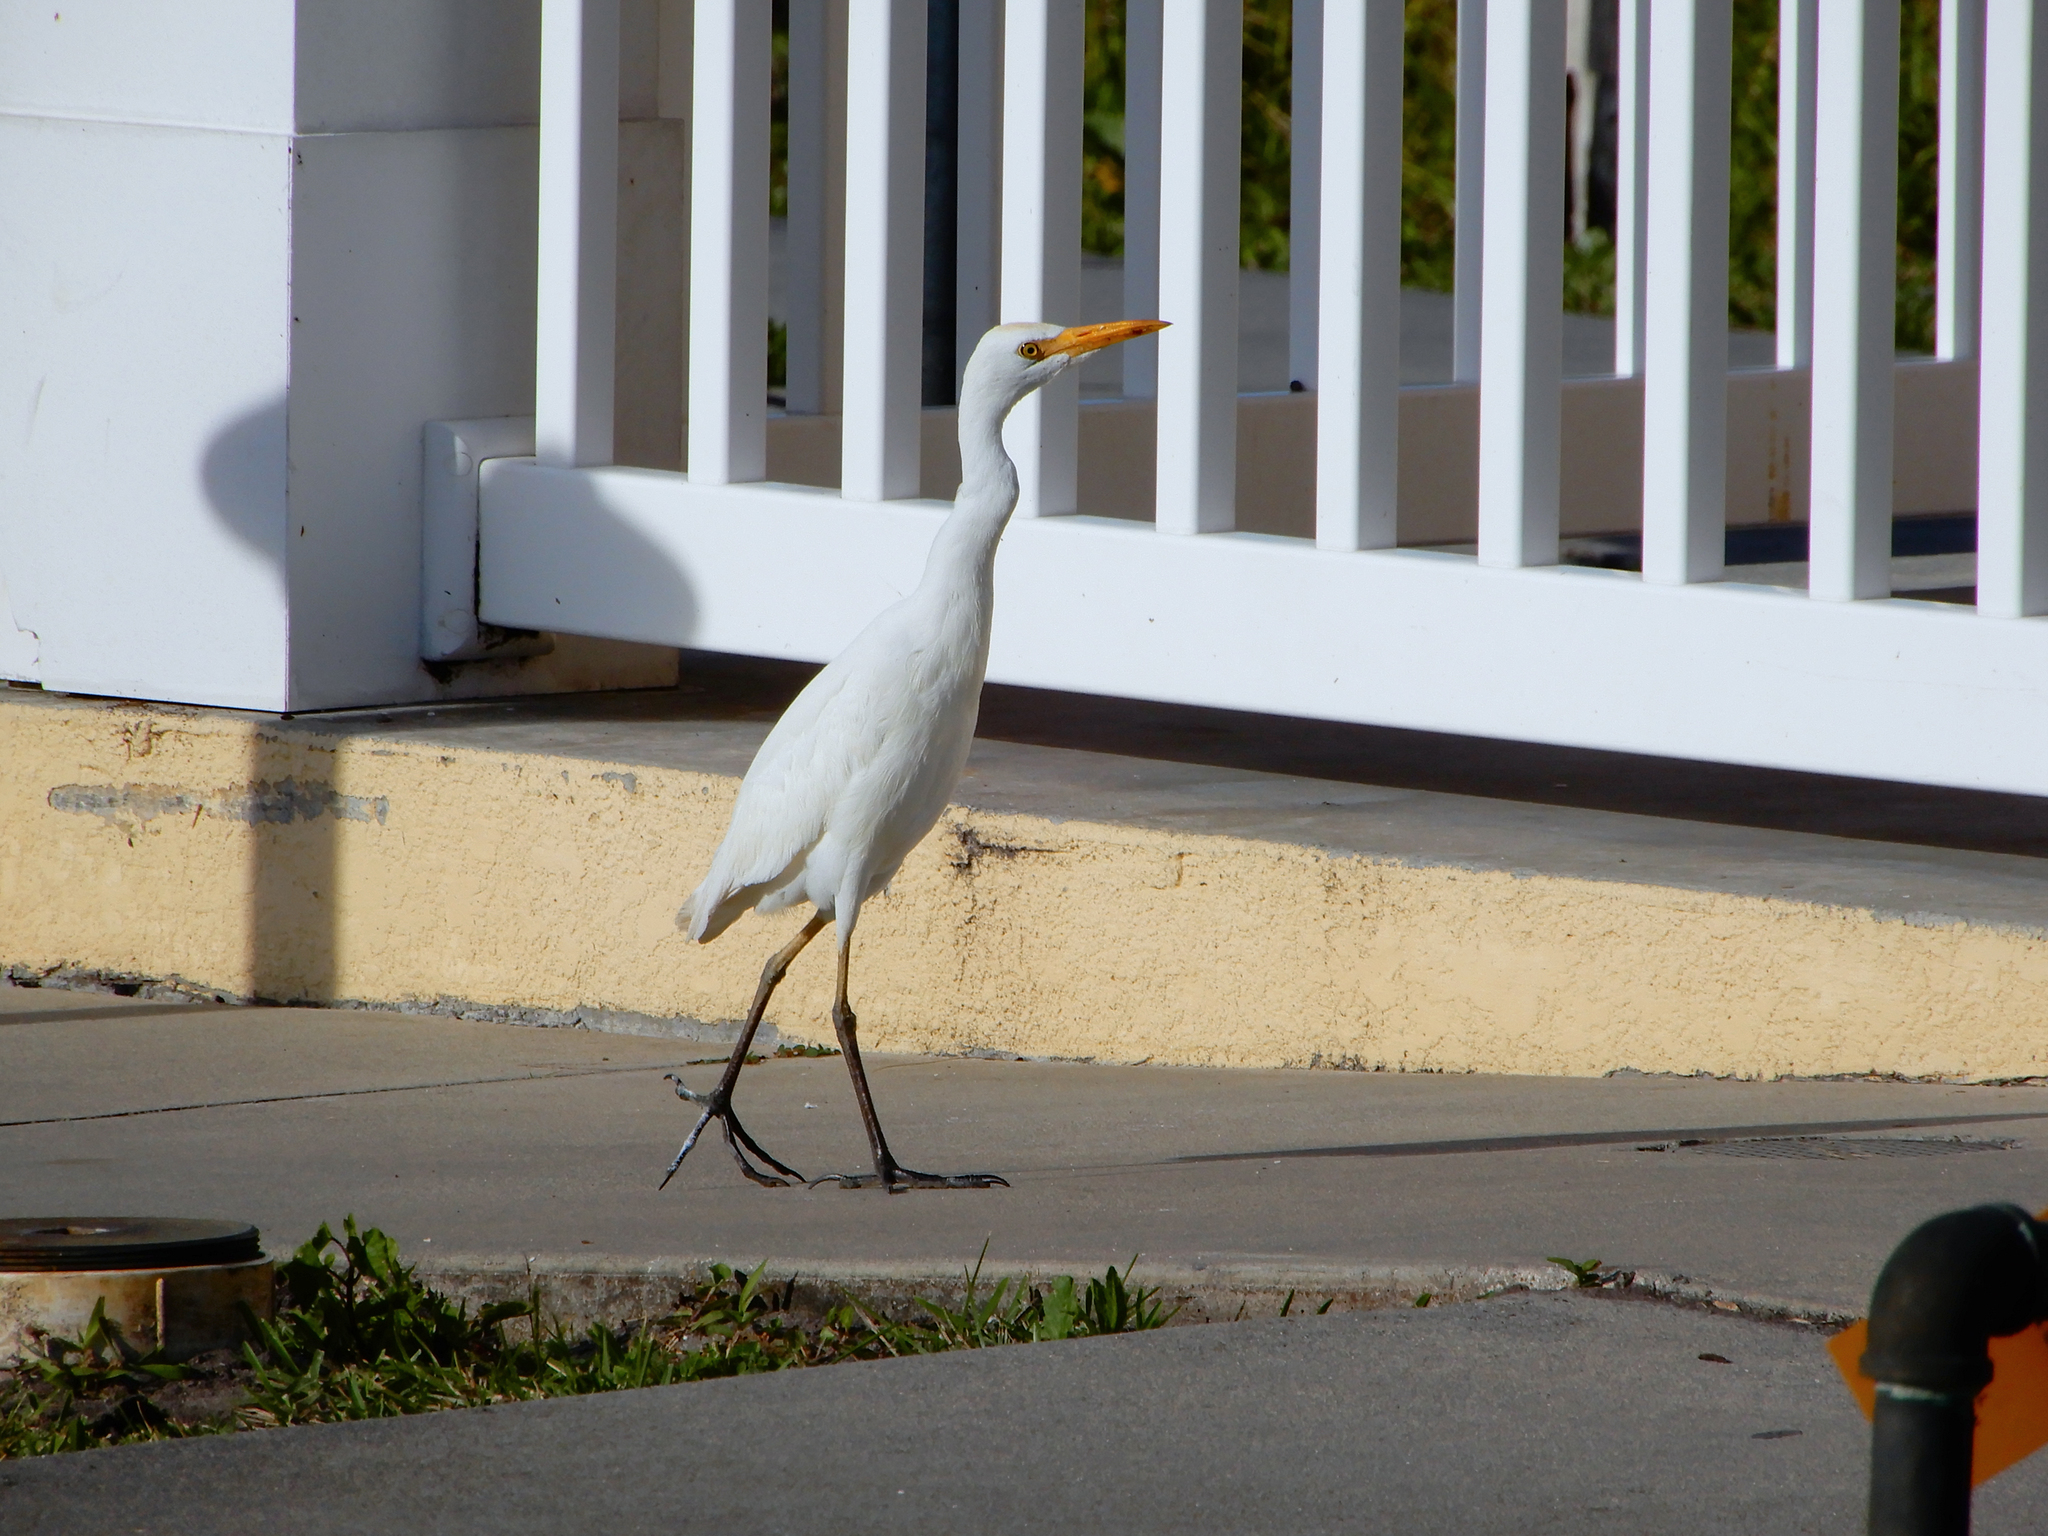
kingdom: Animalia
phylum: Chordata
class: Aves
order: Pelecaniformes
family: Ardeidae
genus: Bubulcus
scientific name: Bubulcus ibis
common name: Cattle egret
